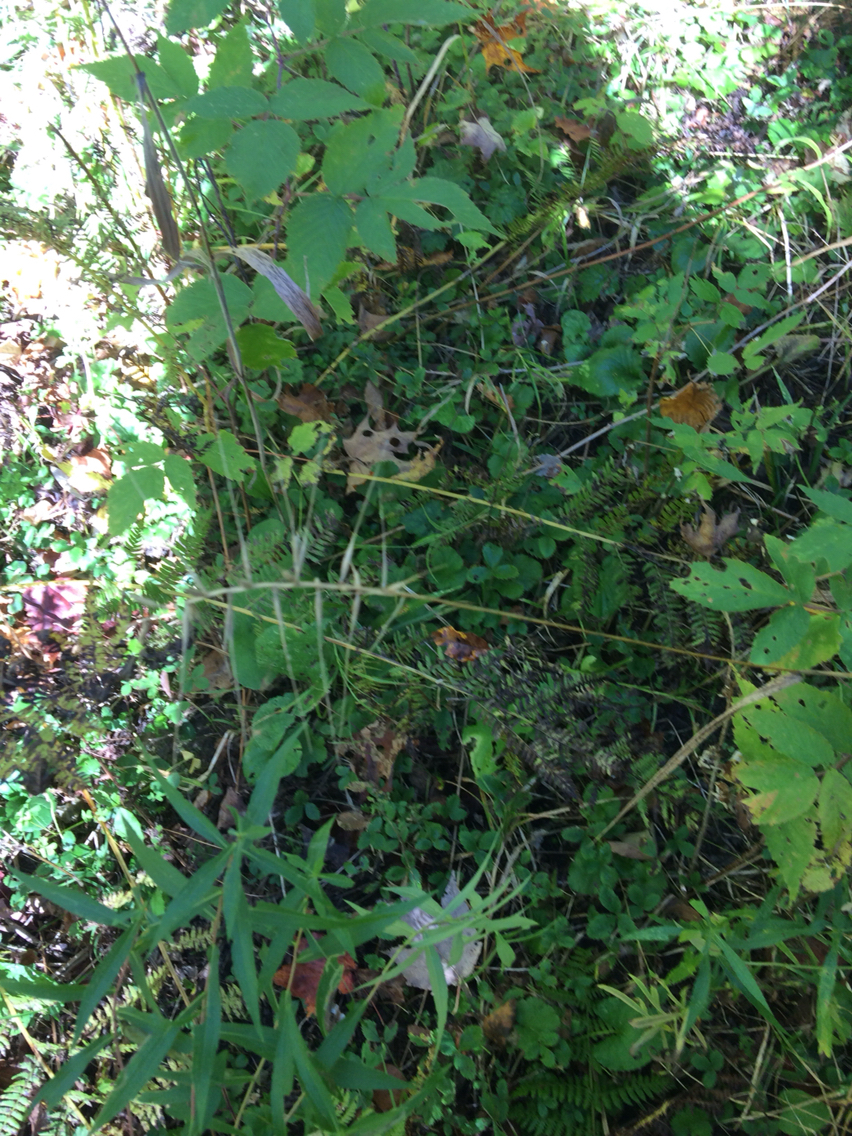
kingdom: Plantae
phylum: Tracheophyta
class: Liliopsida
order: Poales
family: Poaceae
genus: Elymus
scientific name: Elymus hystrix
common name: Bottlebrush grass
